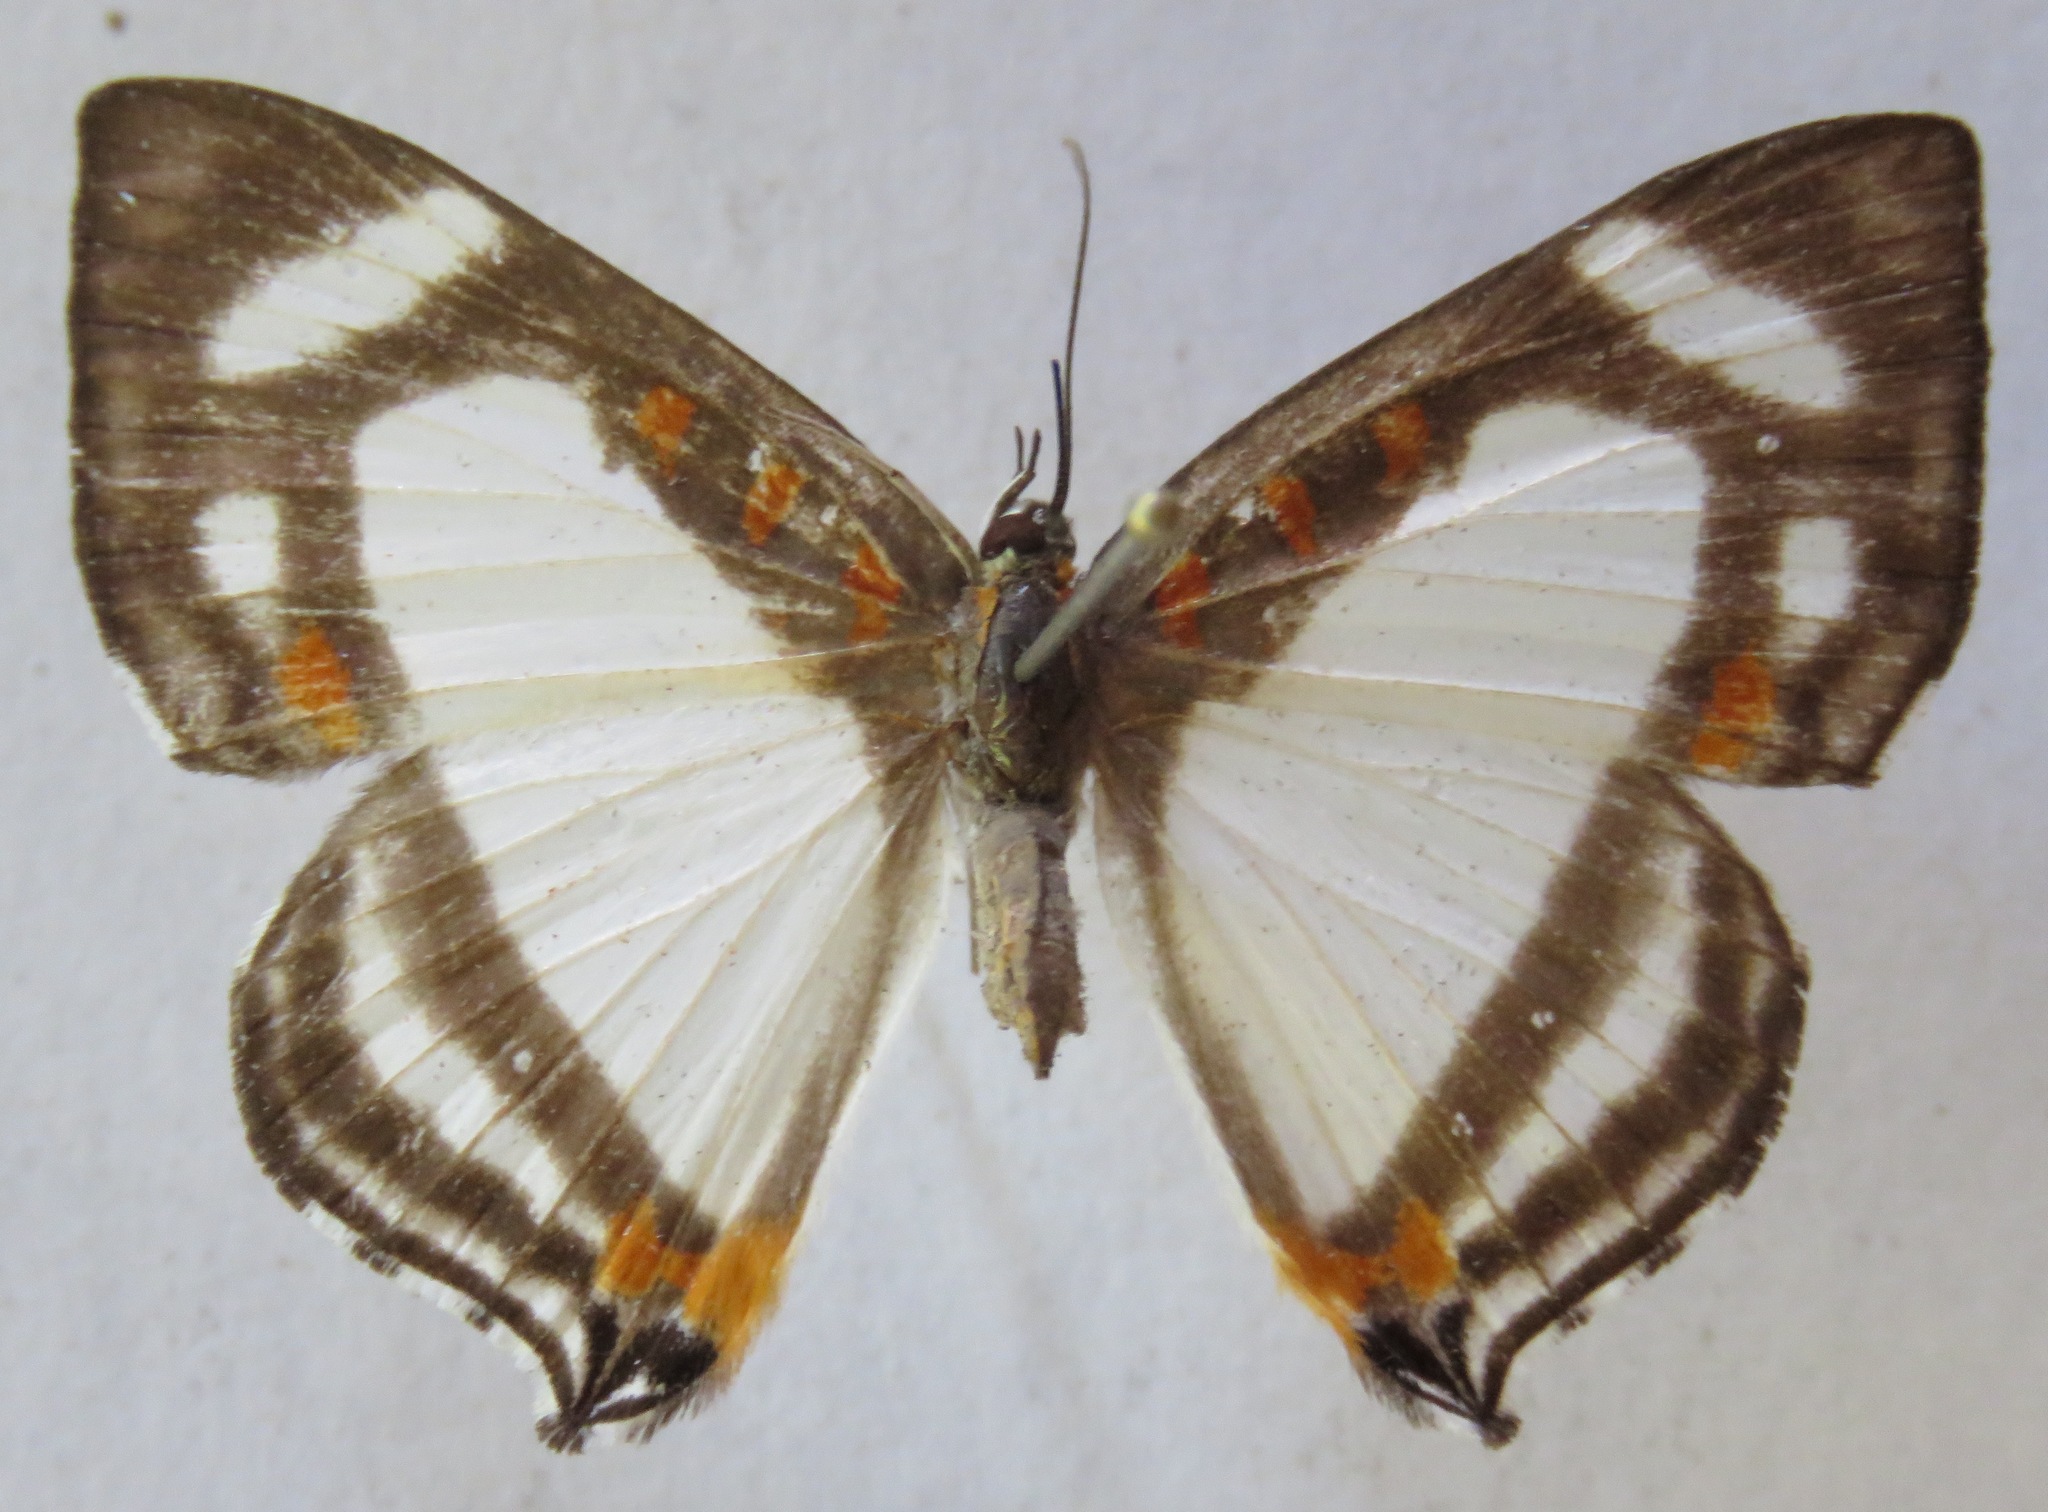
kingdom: Animalia
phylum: Arthropoda
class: Insecta
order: Lepidoptera
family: Riodinidae
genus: Thisbe
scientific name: Thisbe lycorias
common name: Banner metalmark
